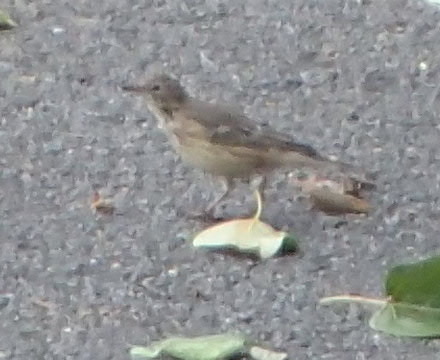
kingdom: Animalia
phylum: Chordata
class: Aves
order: Passeriformes
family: Motacillidae
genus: Anthus
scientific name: Anthus rubescens
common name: Buff-bellied pipit
